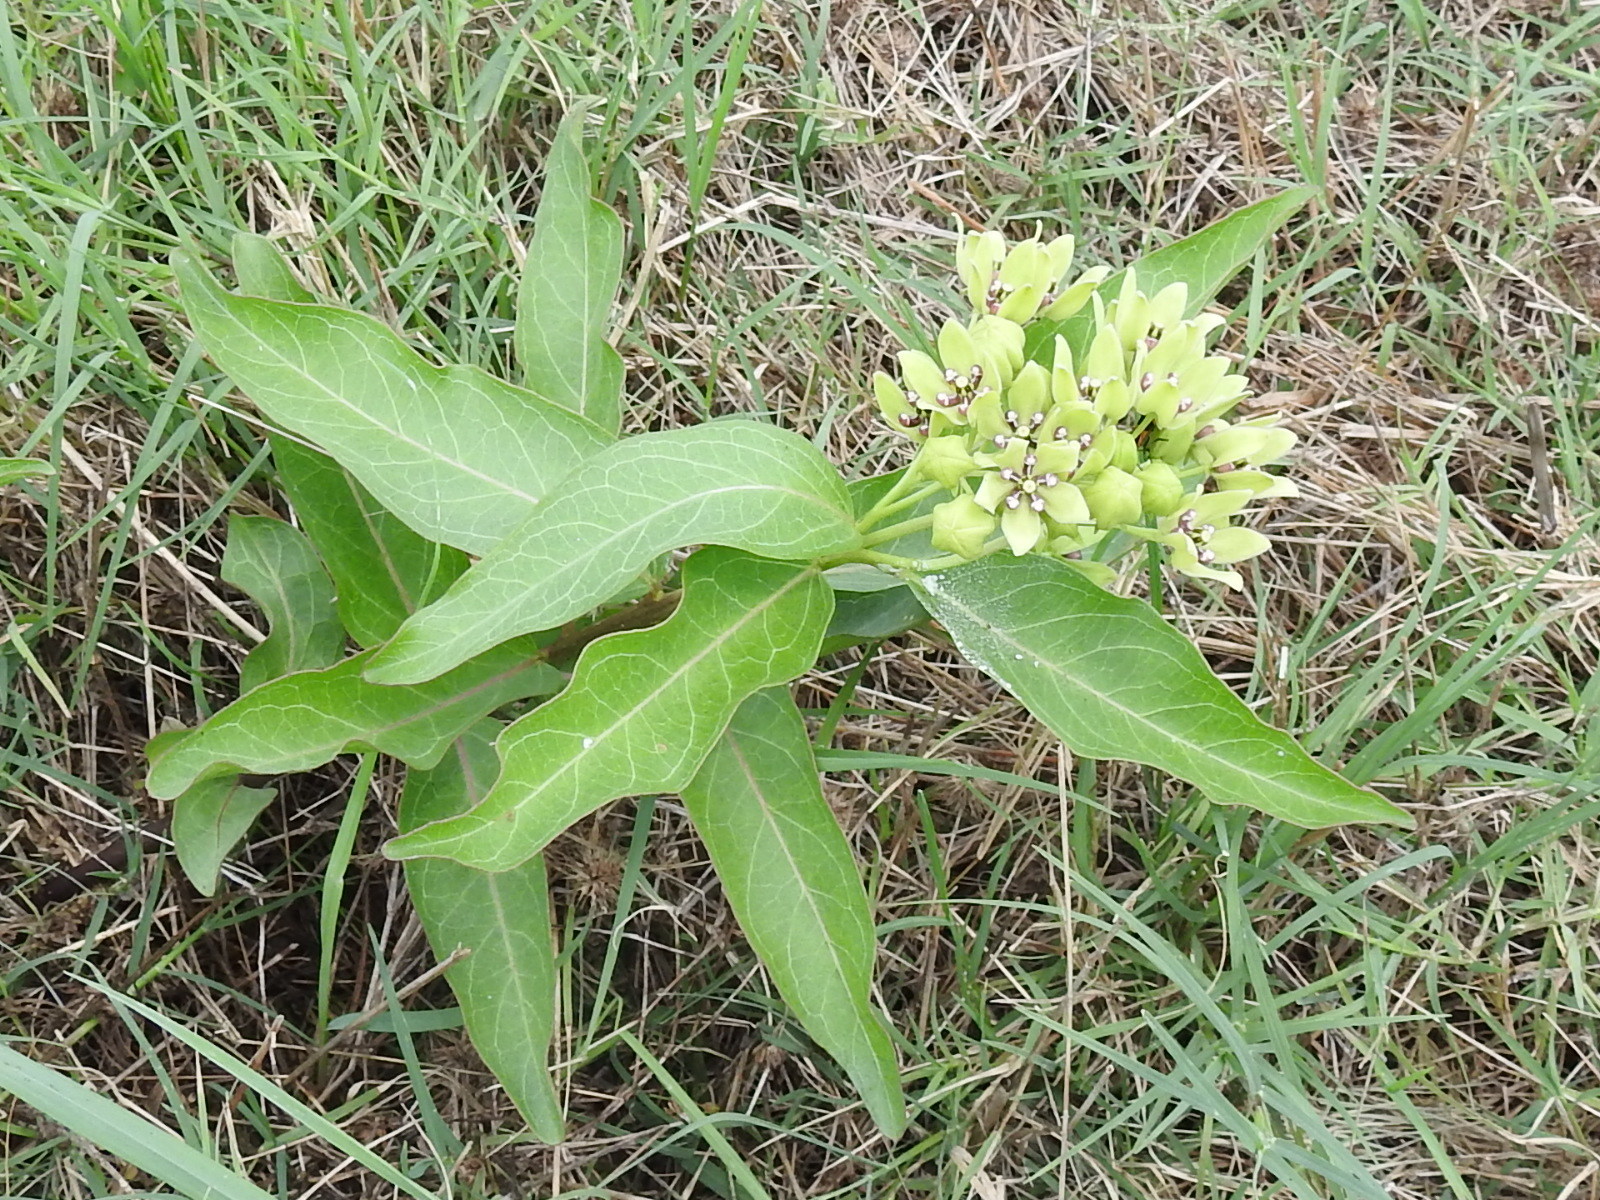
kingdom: Plantae
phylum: Tracheophyta
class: Magnoliopsida
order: Gentianales
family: Apocynaceae
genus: Asclepias
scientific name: Asclepias viridis
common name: Antelope-horns
